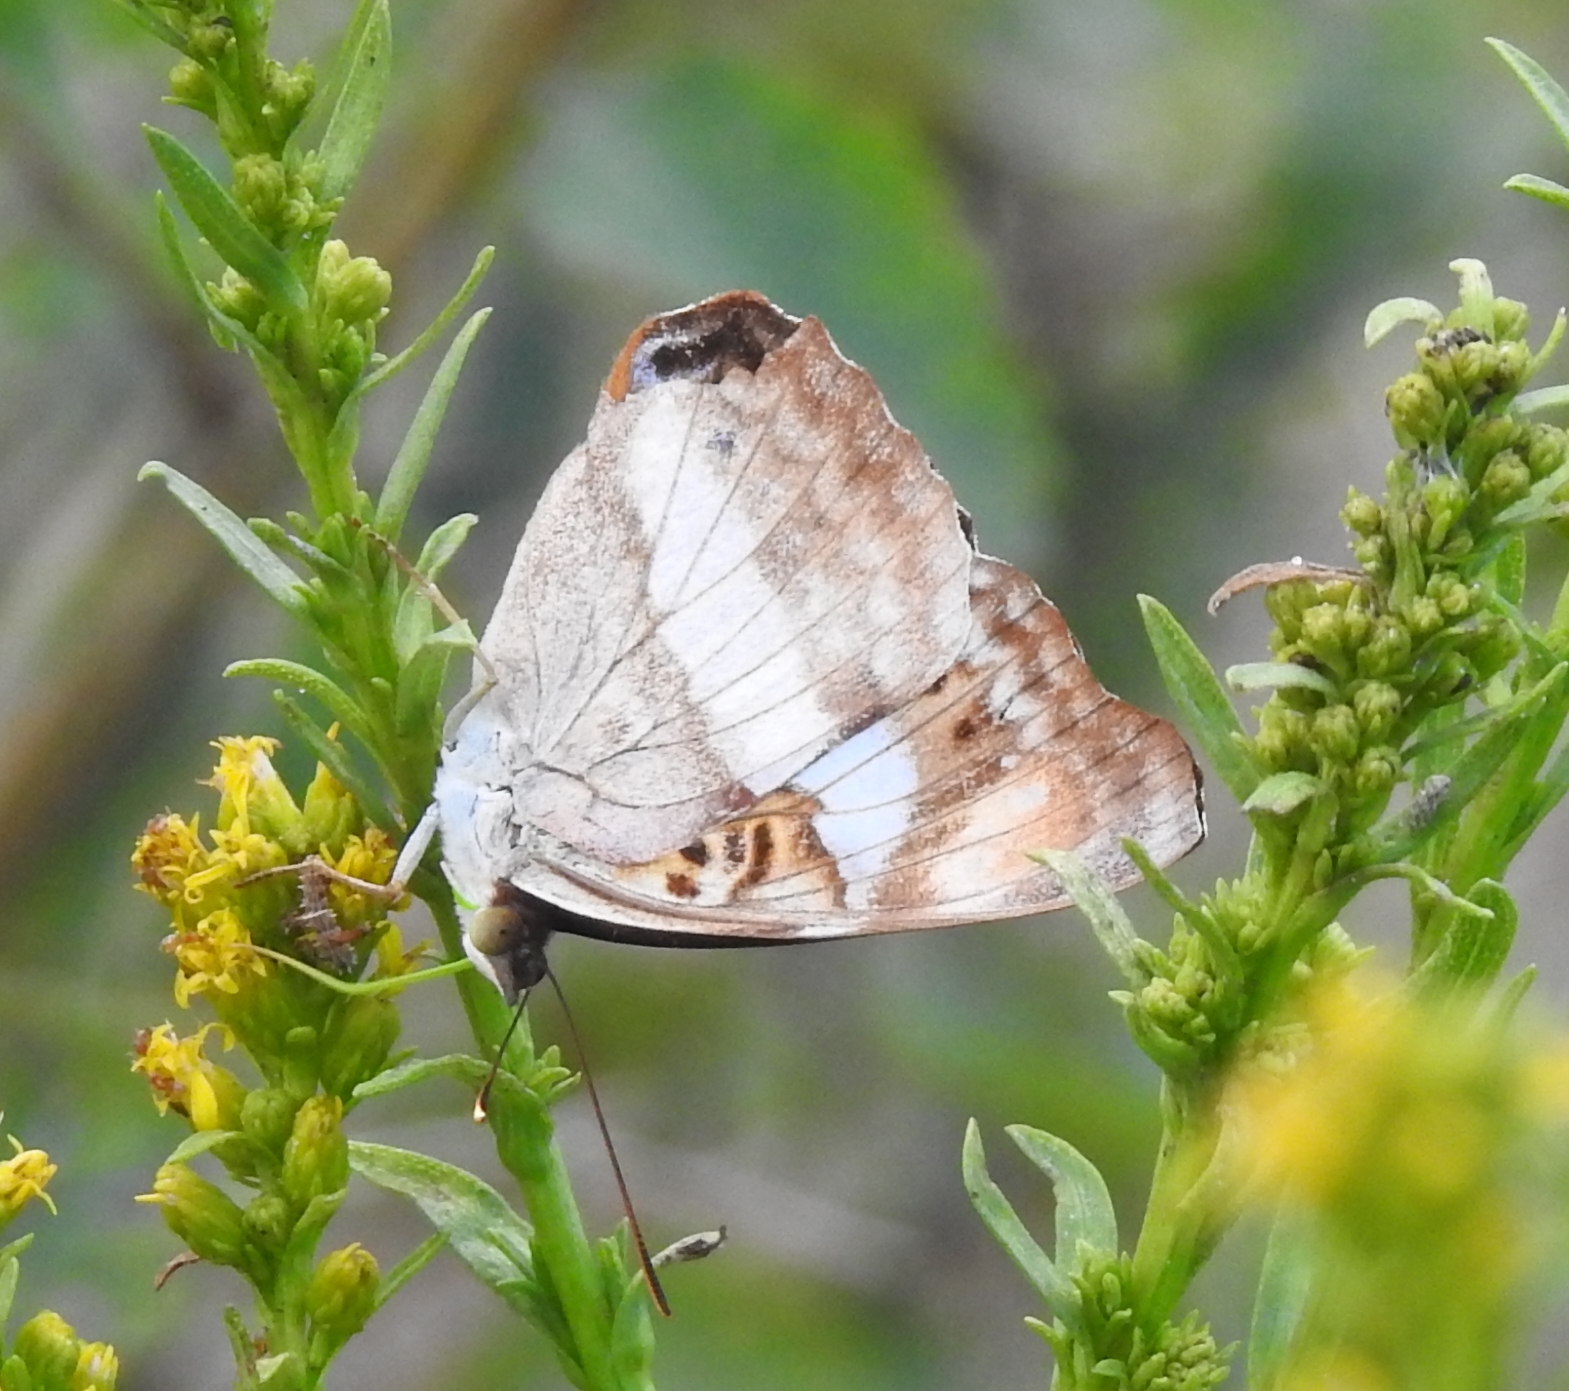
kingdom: Animalia
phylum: Arthropoda
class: Insecta
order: Lepidoptera
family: Nymphalidae
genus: Doxocopa
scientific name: Doxocopa pavon
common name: Pavon emperor
